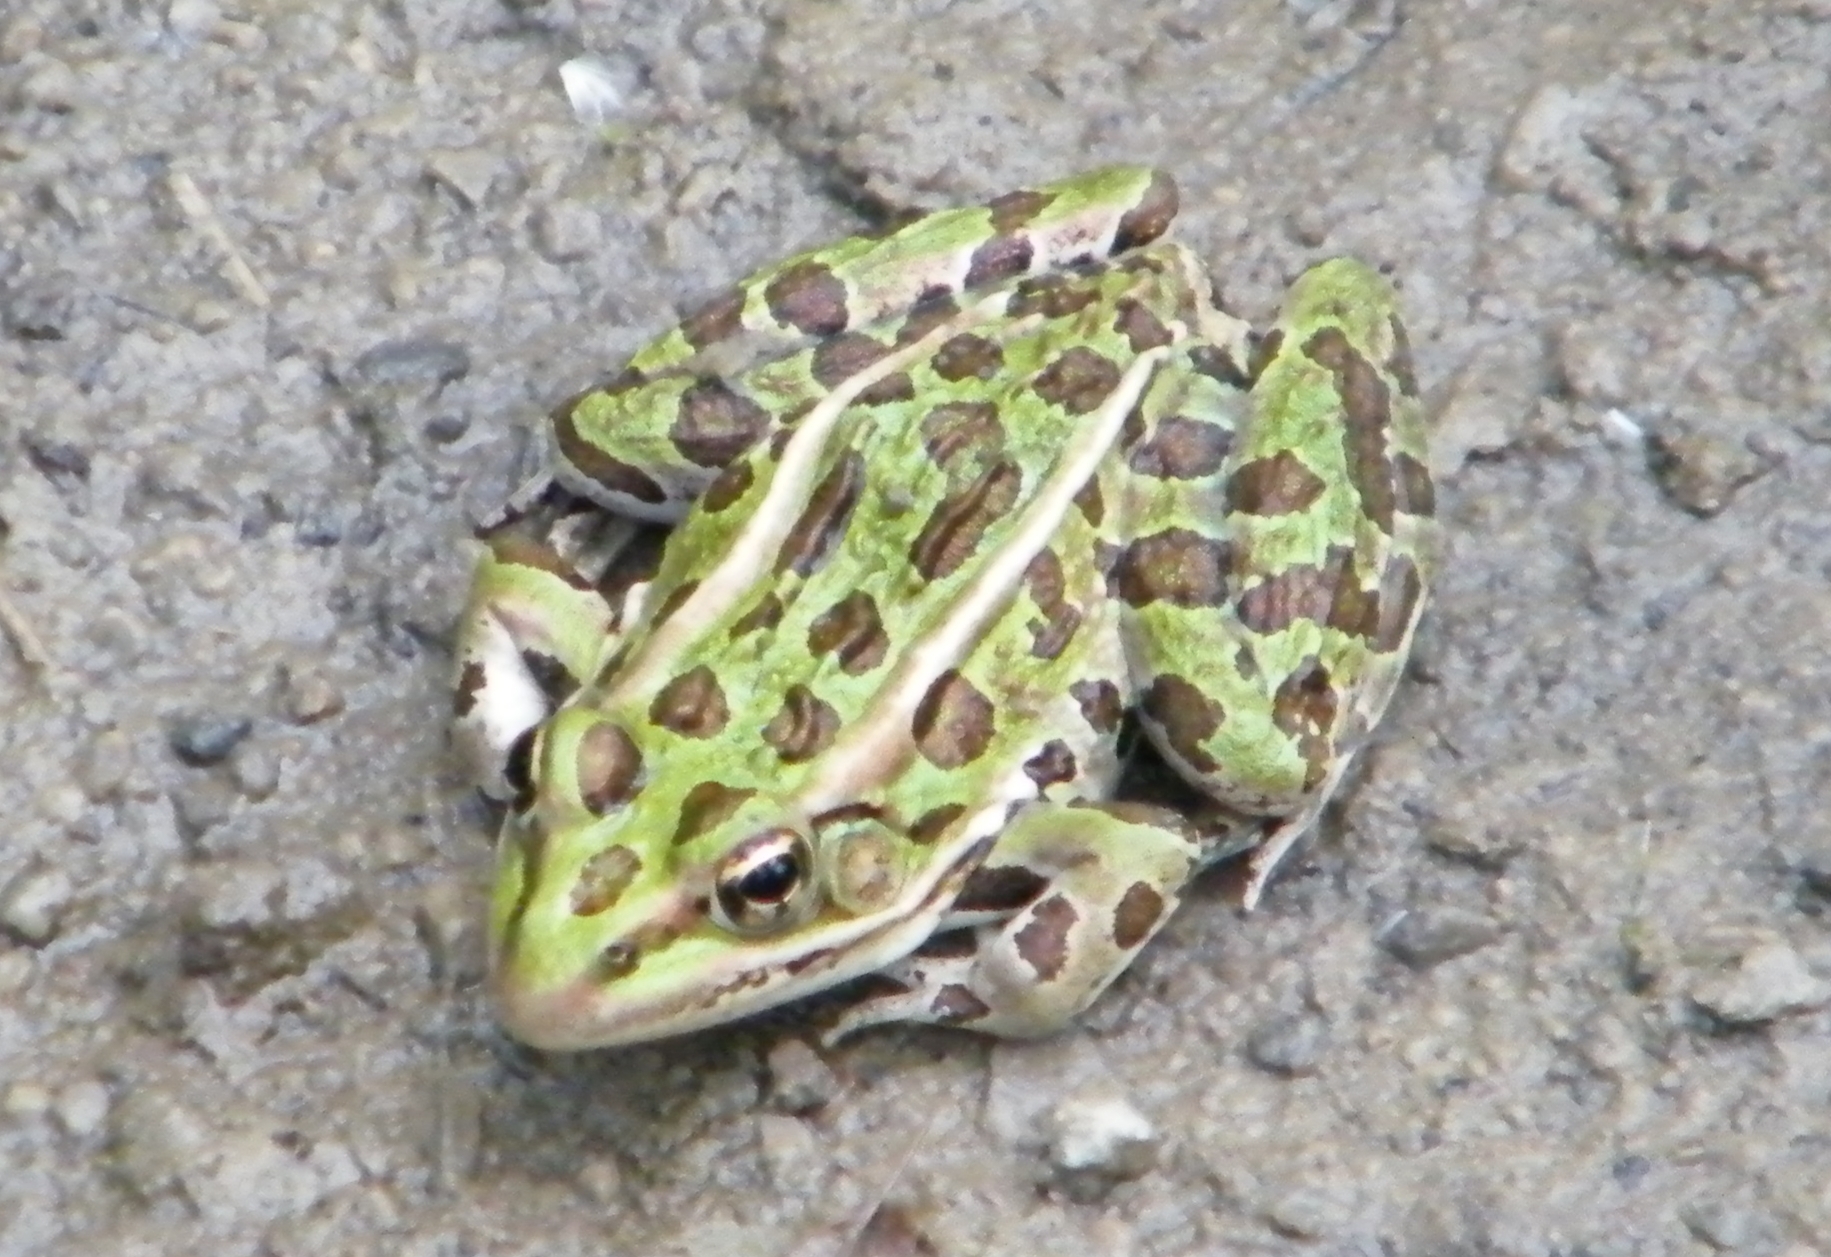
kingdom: Animalia
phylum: Chordata
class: Amphibia
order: Anura
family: Ranidae
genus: Lithobates
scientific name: Lithobates pipiens
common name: Northern leopard frog
